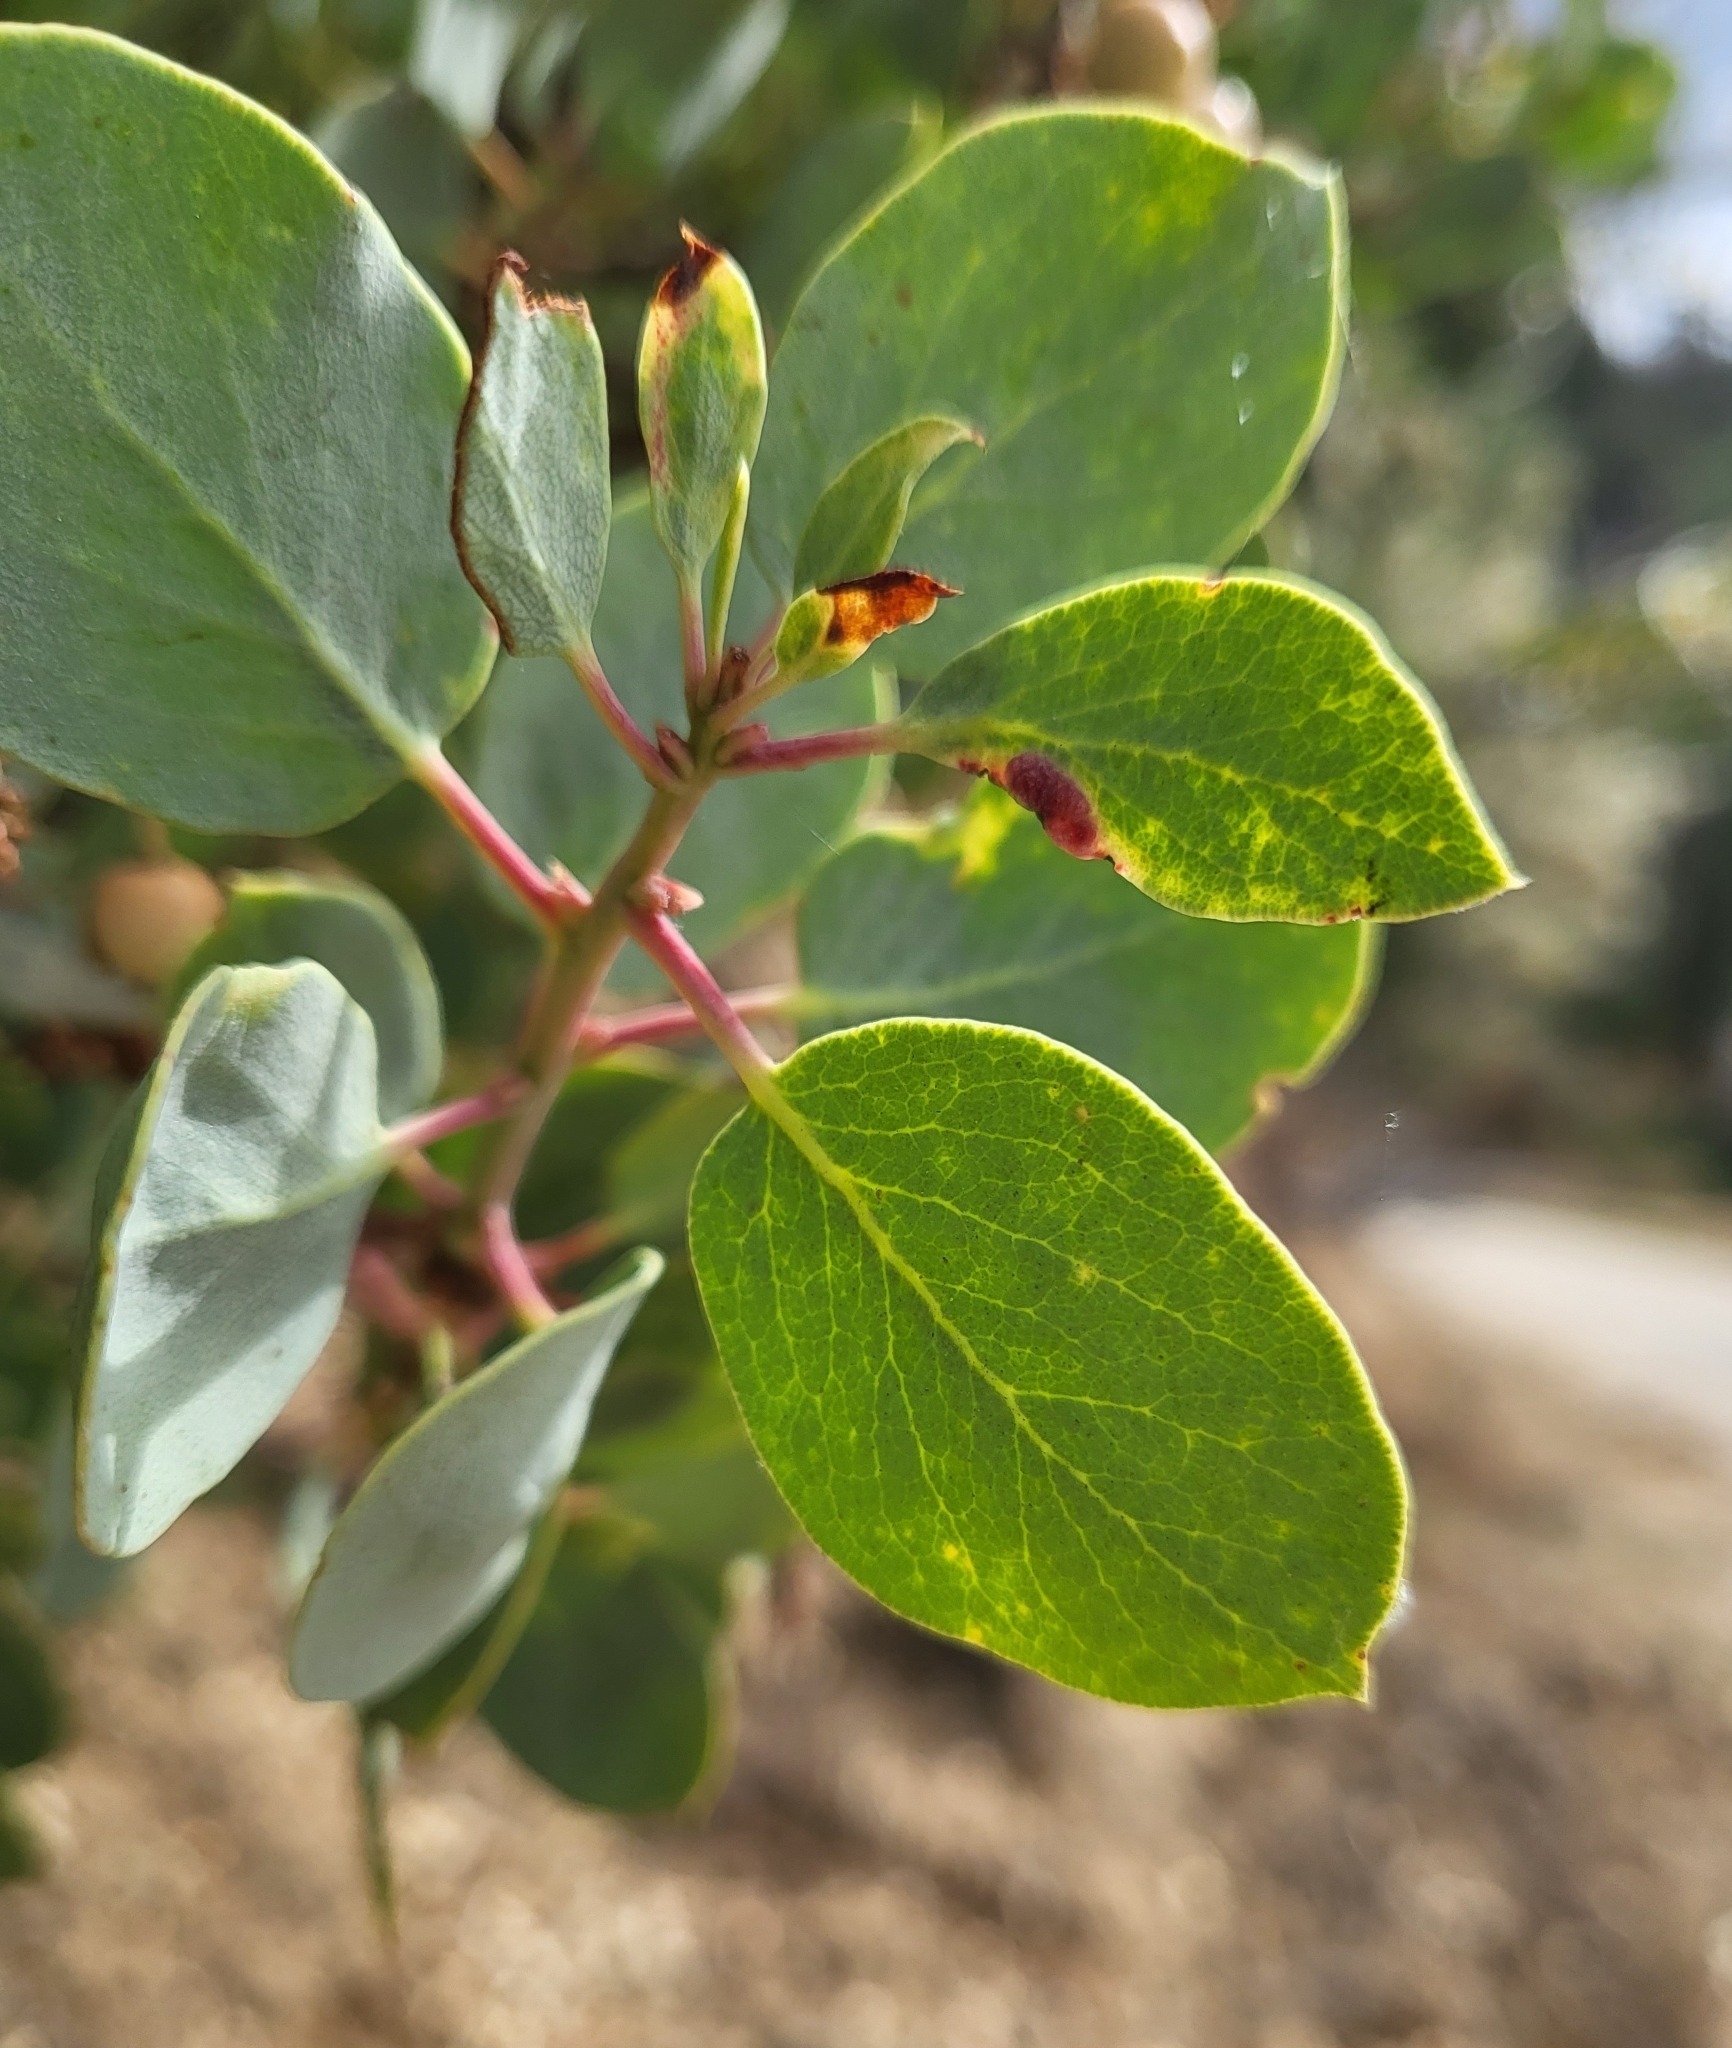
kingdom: Plantae
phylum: Tracheophyta
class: Magnoliopsida
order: Ericales
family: Ericaceae
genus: Arctostaphylos
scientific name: Arctostaphylos viscida
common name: White-leaf manzanita
